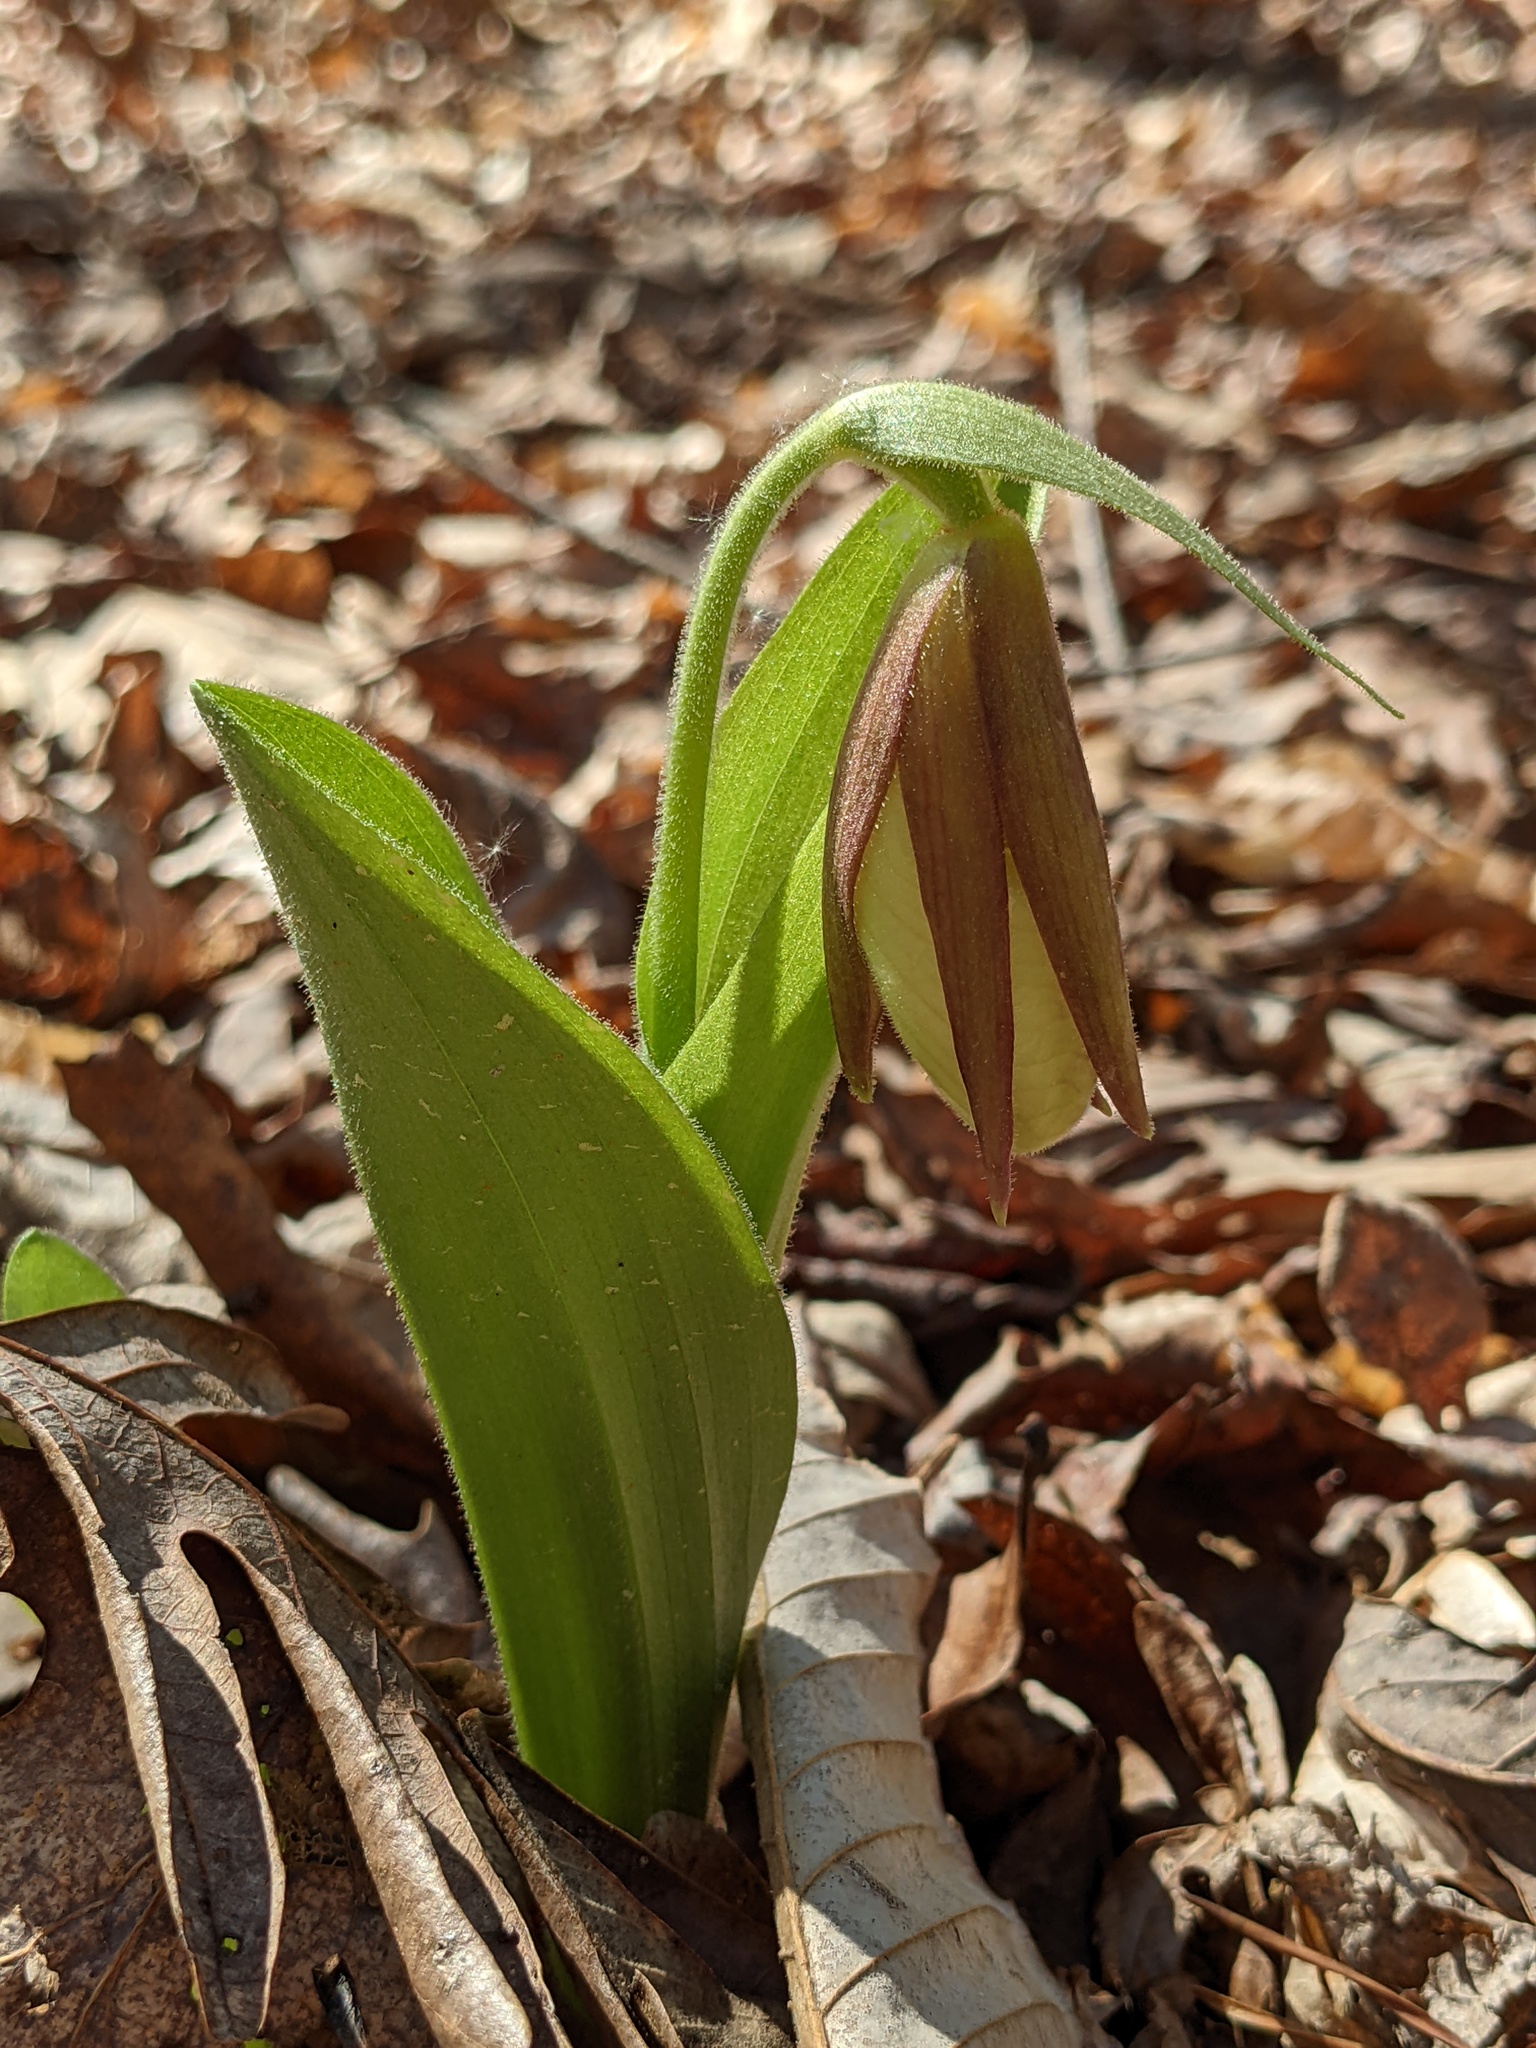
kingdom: Plantae
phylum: Tracheophyta
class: Liliopsida
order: Asparagales
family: Orchidaceae
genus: Cypripedium
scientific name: Cypripedium acaule
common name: Pink lady's-slipper
